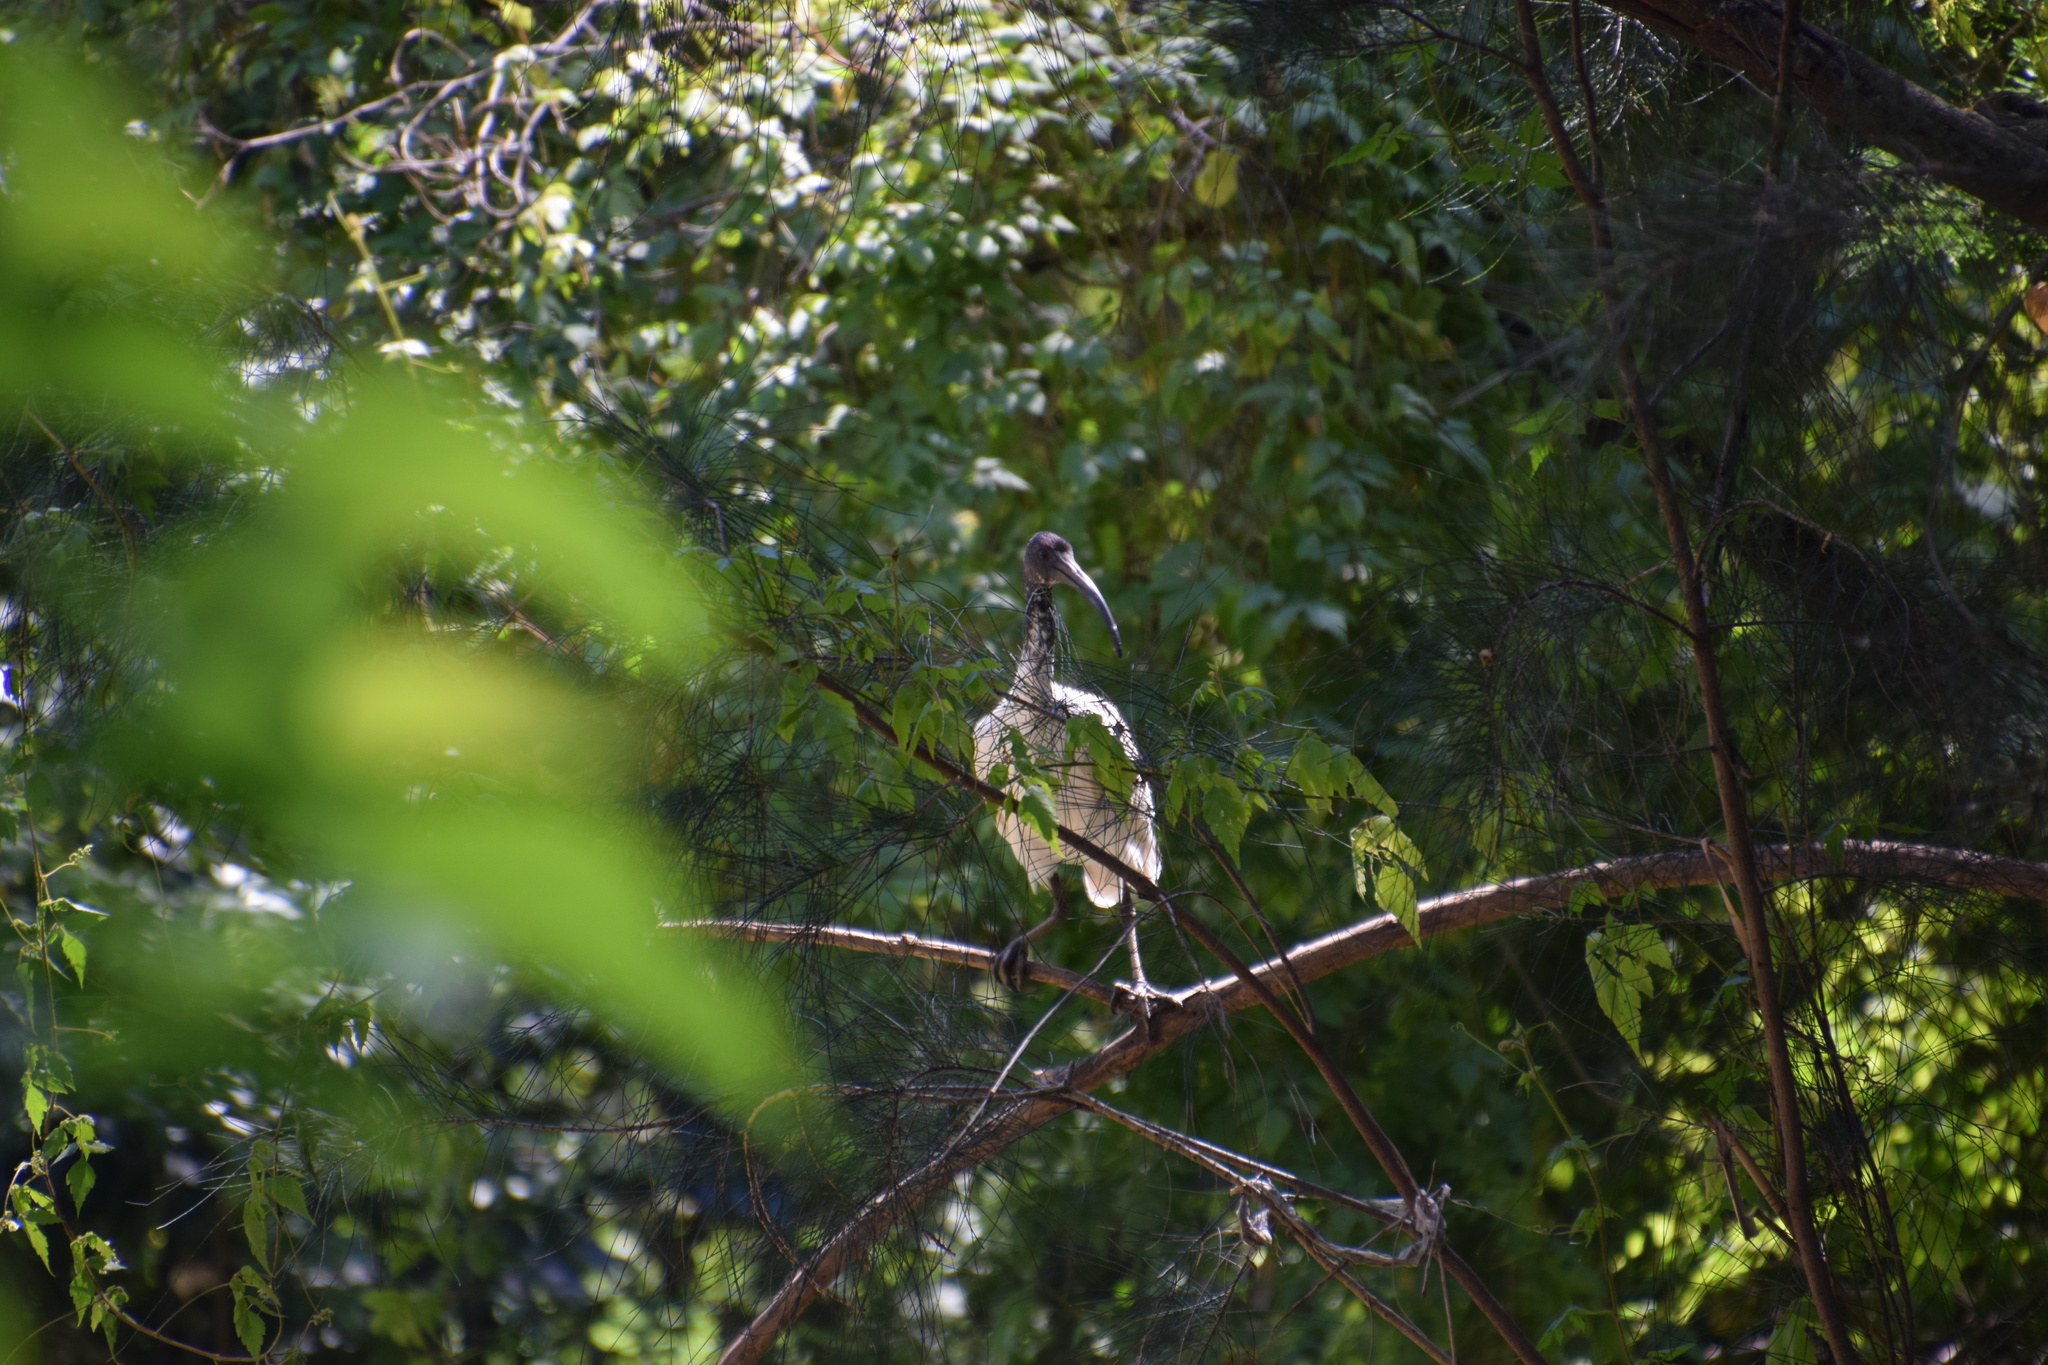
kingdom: Animalia
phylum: Chordata
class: Aves
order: Pelecaniformes
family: Threskiornithidae
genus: Threskiornis
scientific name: Threskiornis molucca
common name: Australian white ibis
